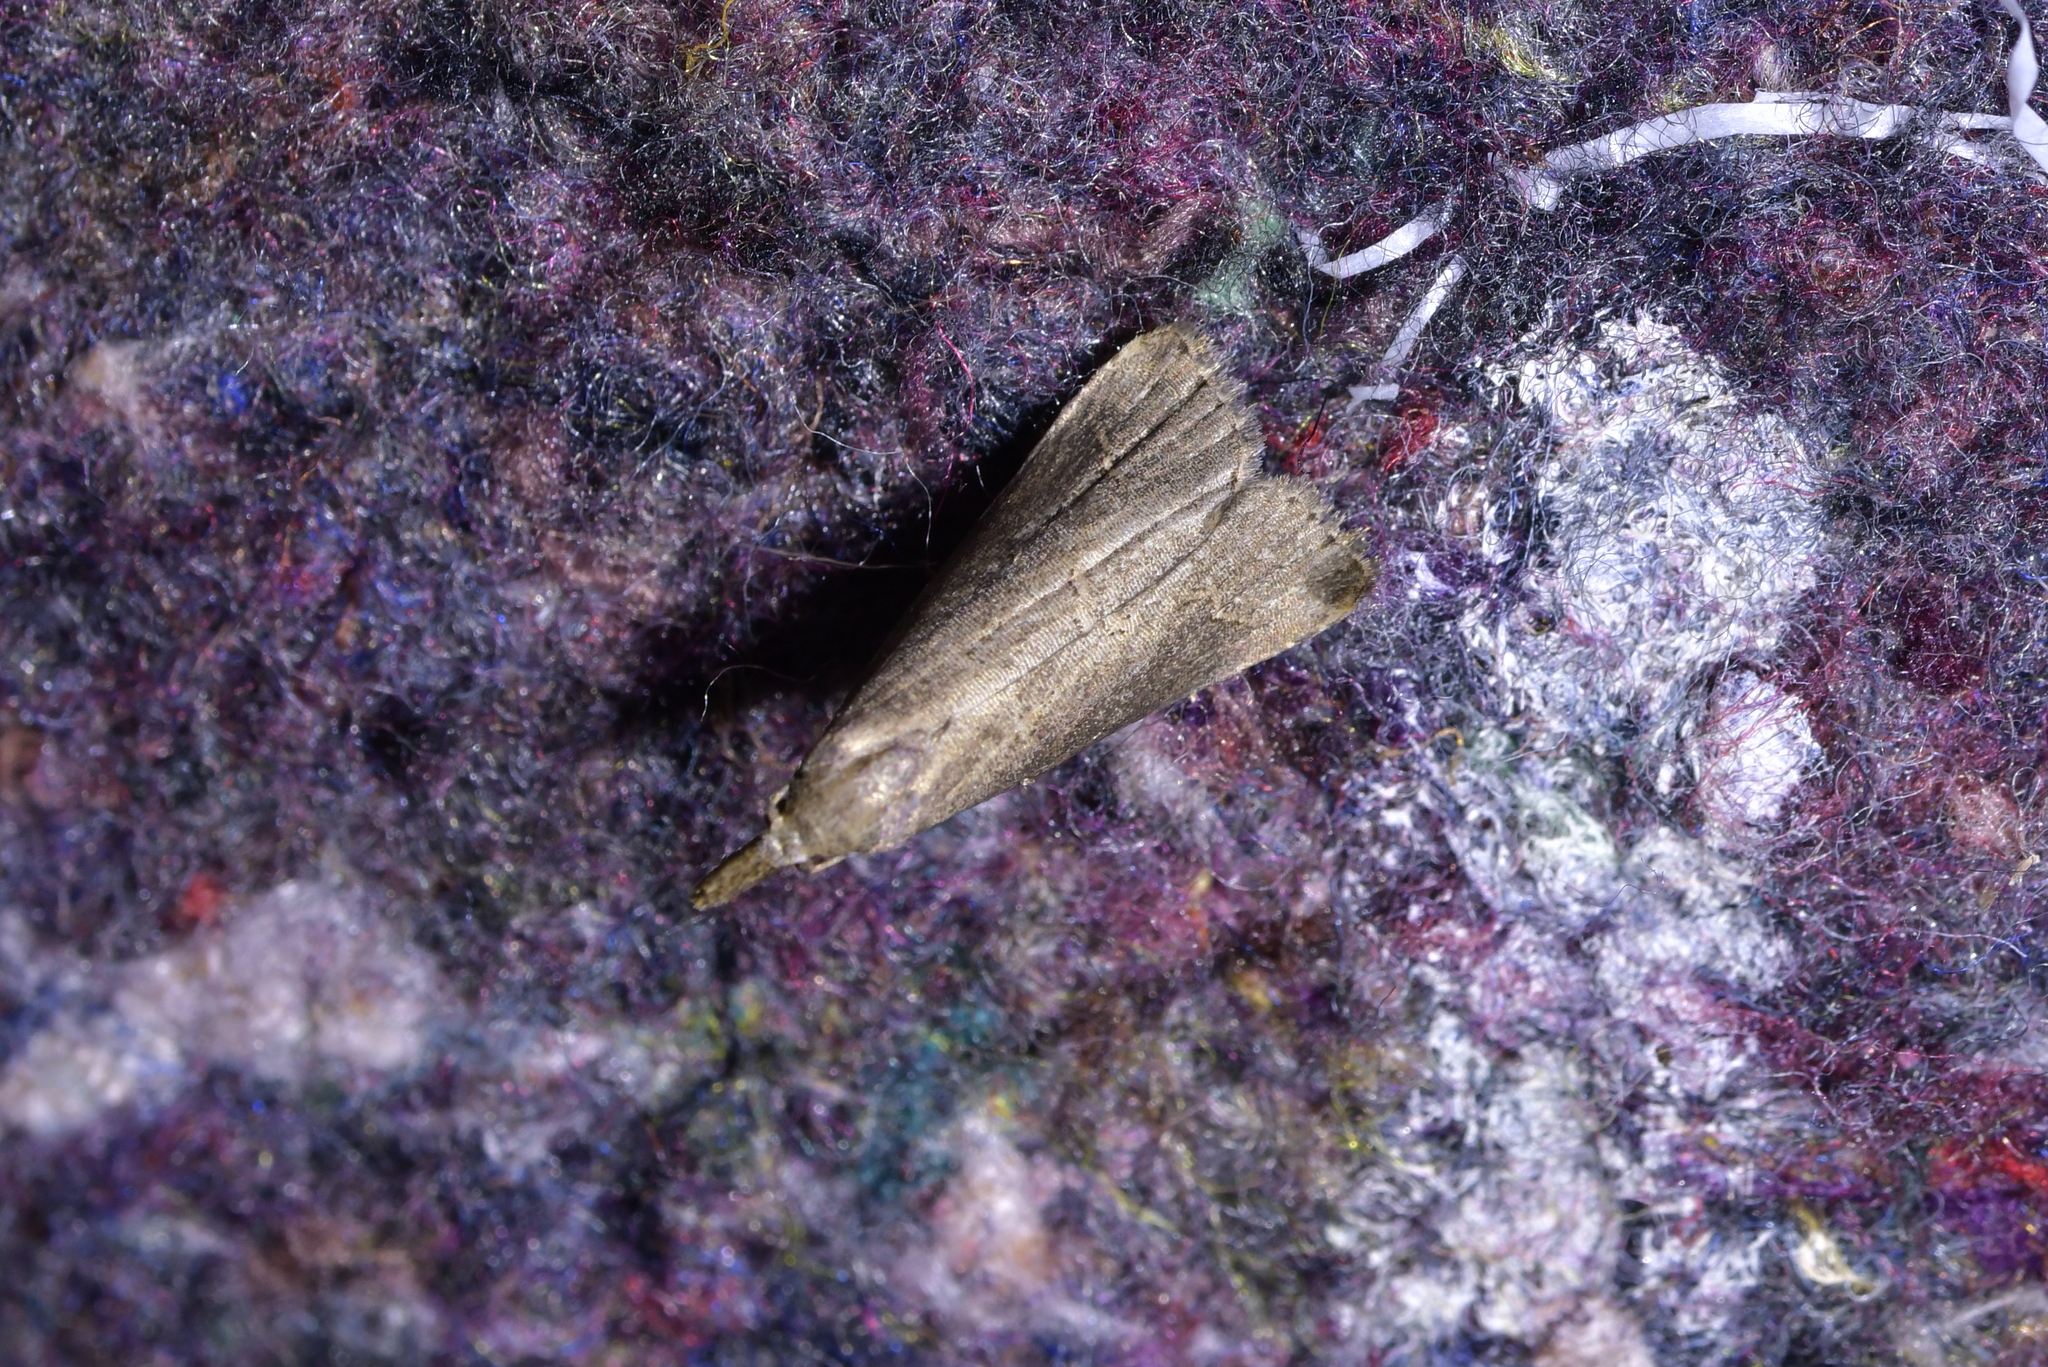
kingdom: Animalia
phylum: Arthropoda
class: Insecta
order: Lepidoptera
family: Erebidae
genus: Schrankia
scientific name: Schrankia costaestrigalis
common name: Pinion-streaked snout
